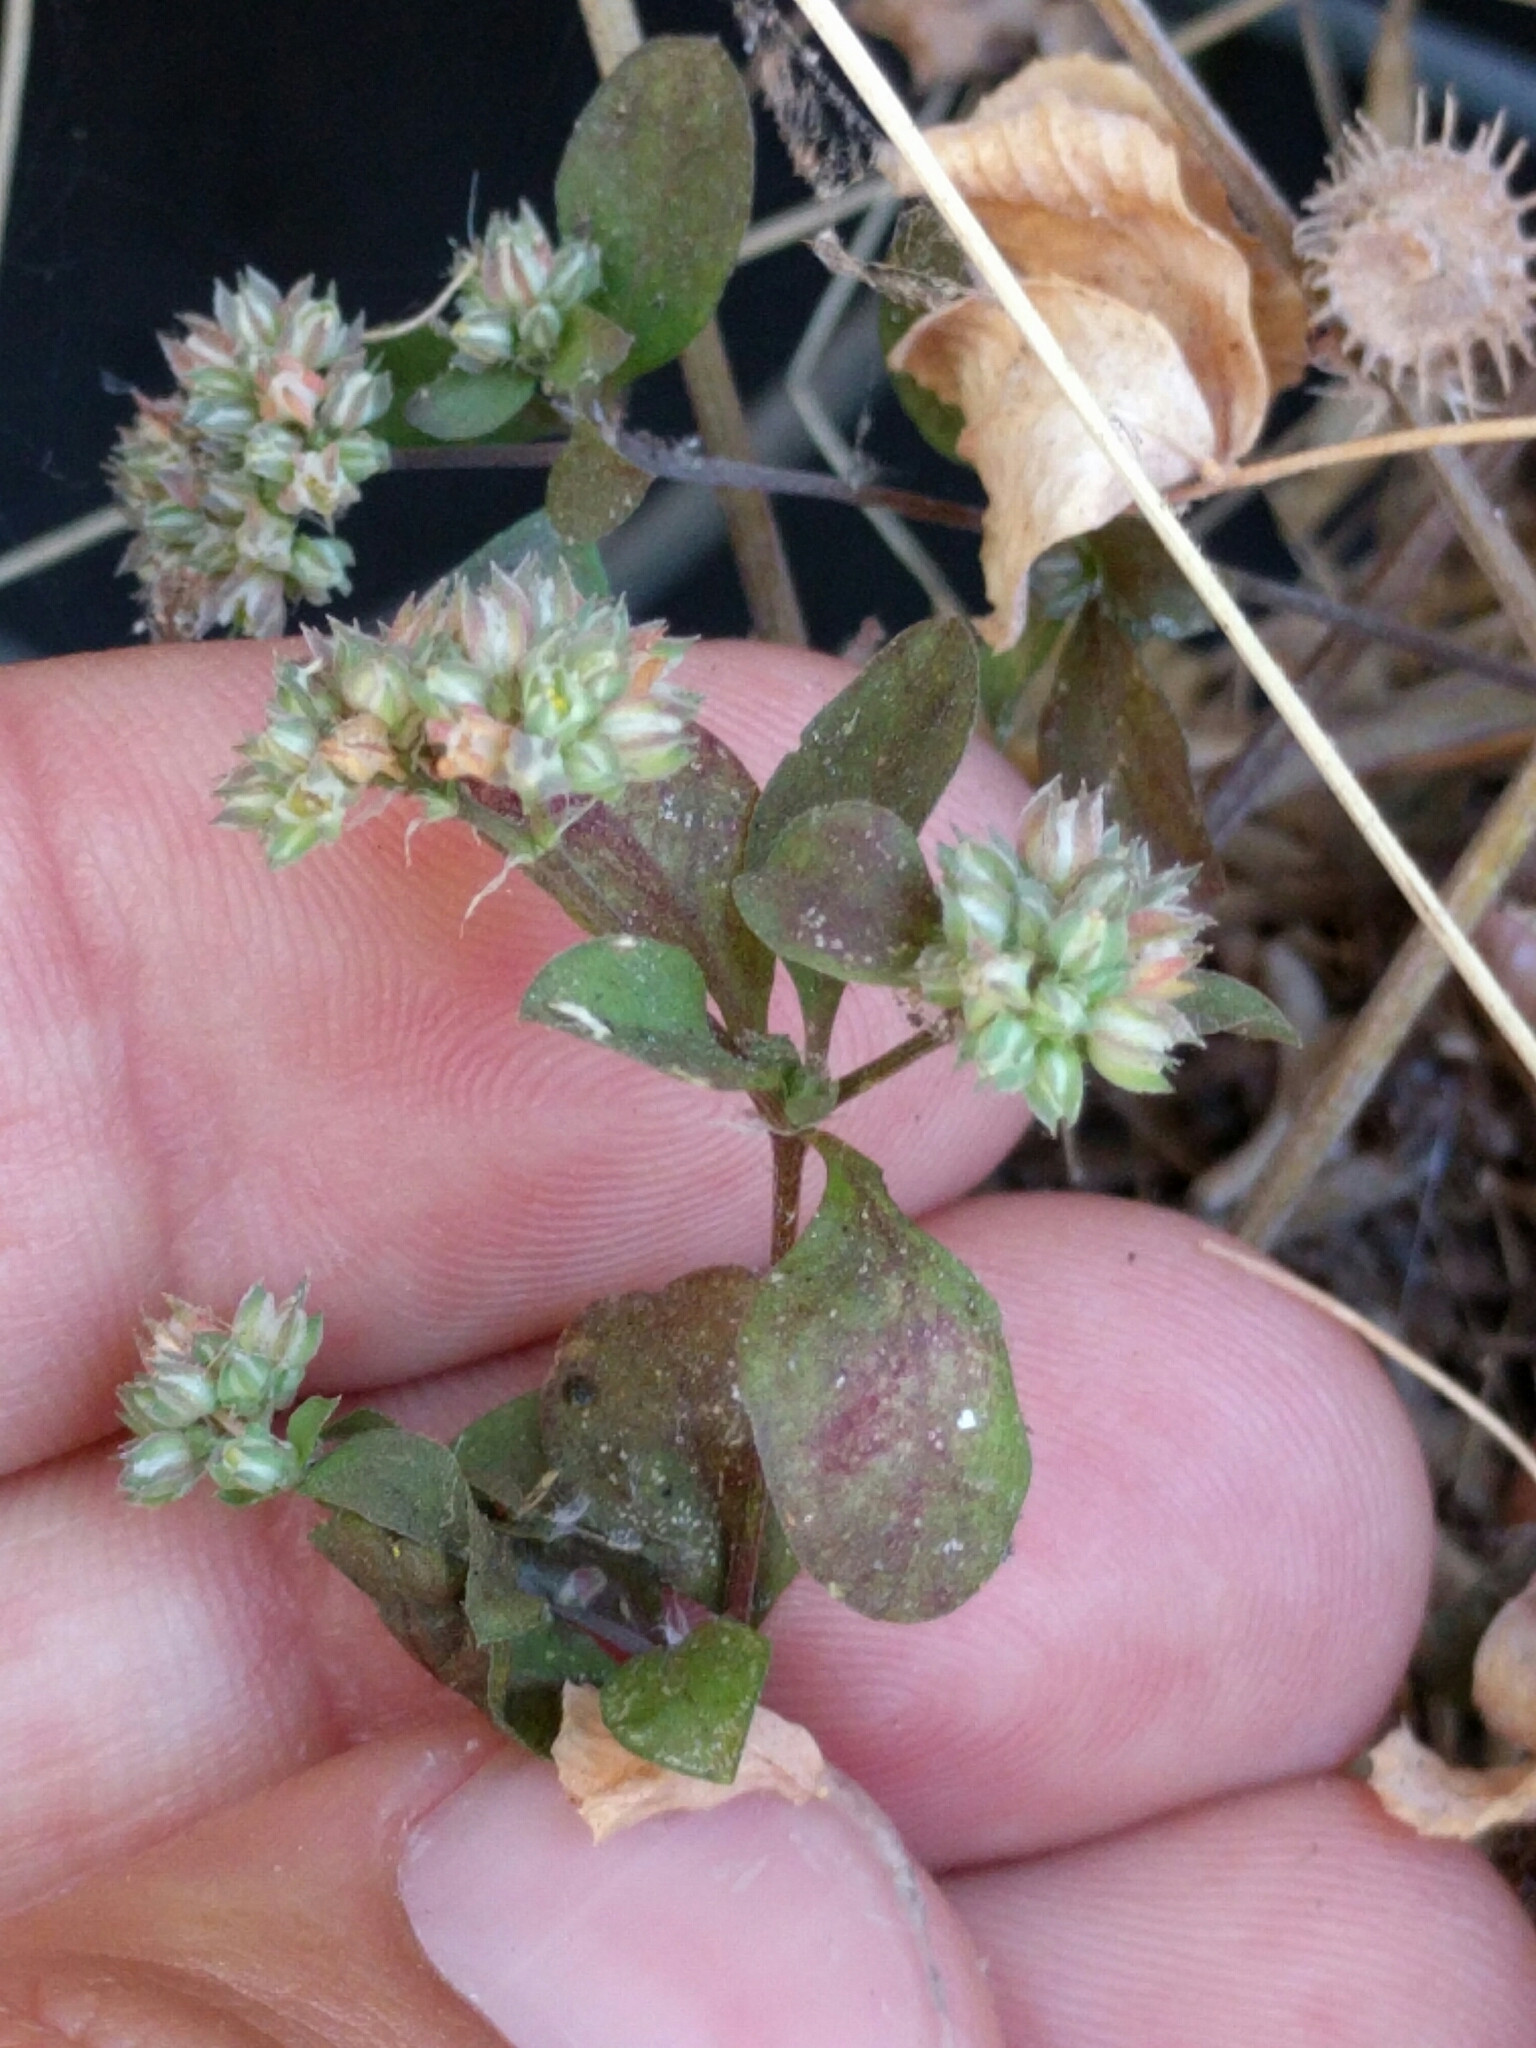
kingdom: Plantae
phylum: Tracheophyta
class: Magnoliopsida
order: Caryophyllales
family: Caryophyllaceae
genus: Polycarpon
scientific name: Polycarpon tetraphyllum
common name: Four-leaved all-seed
